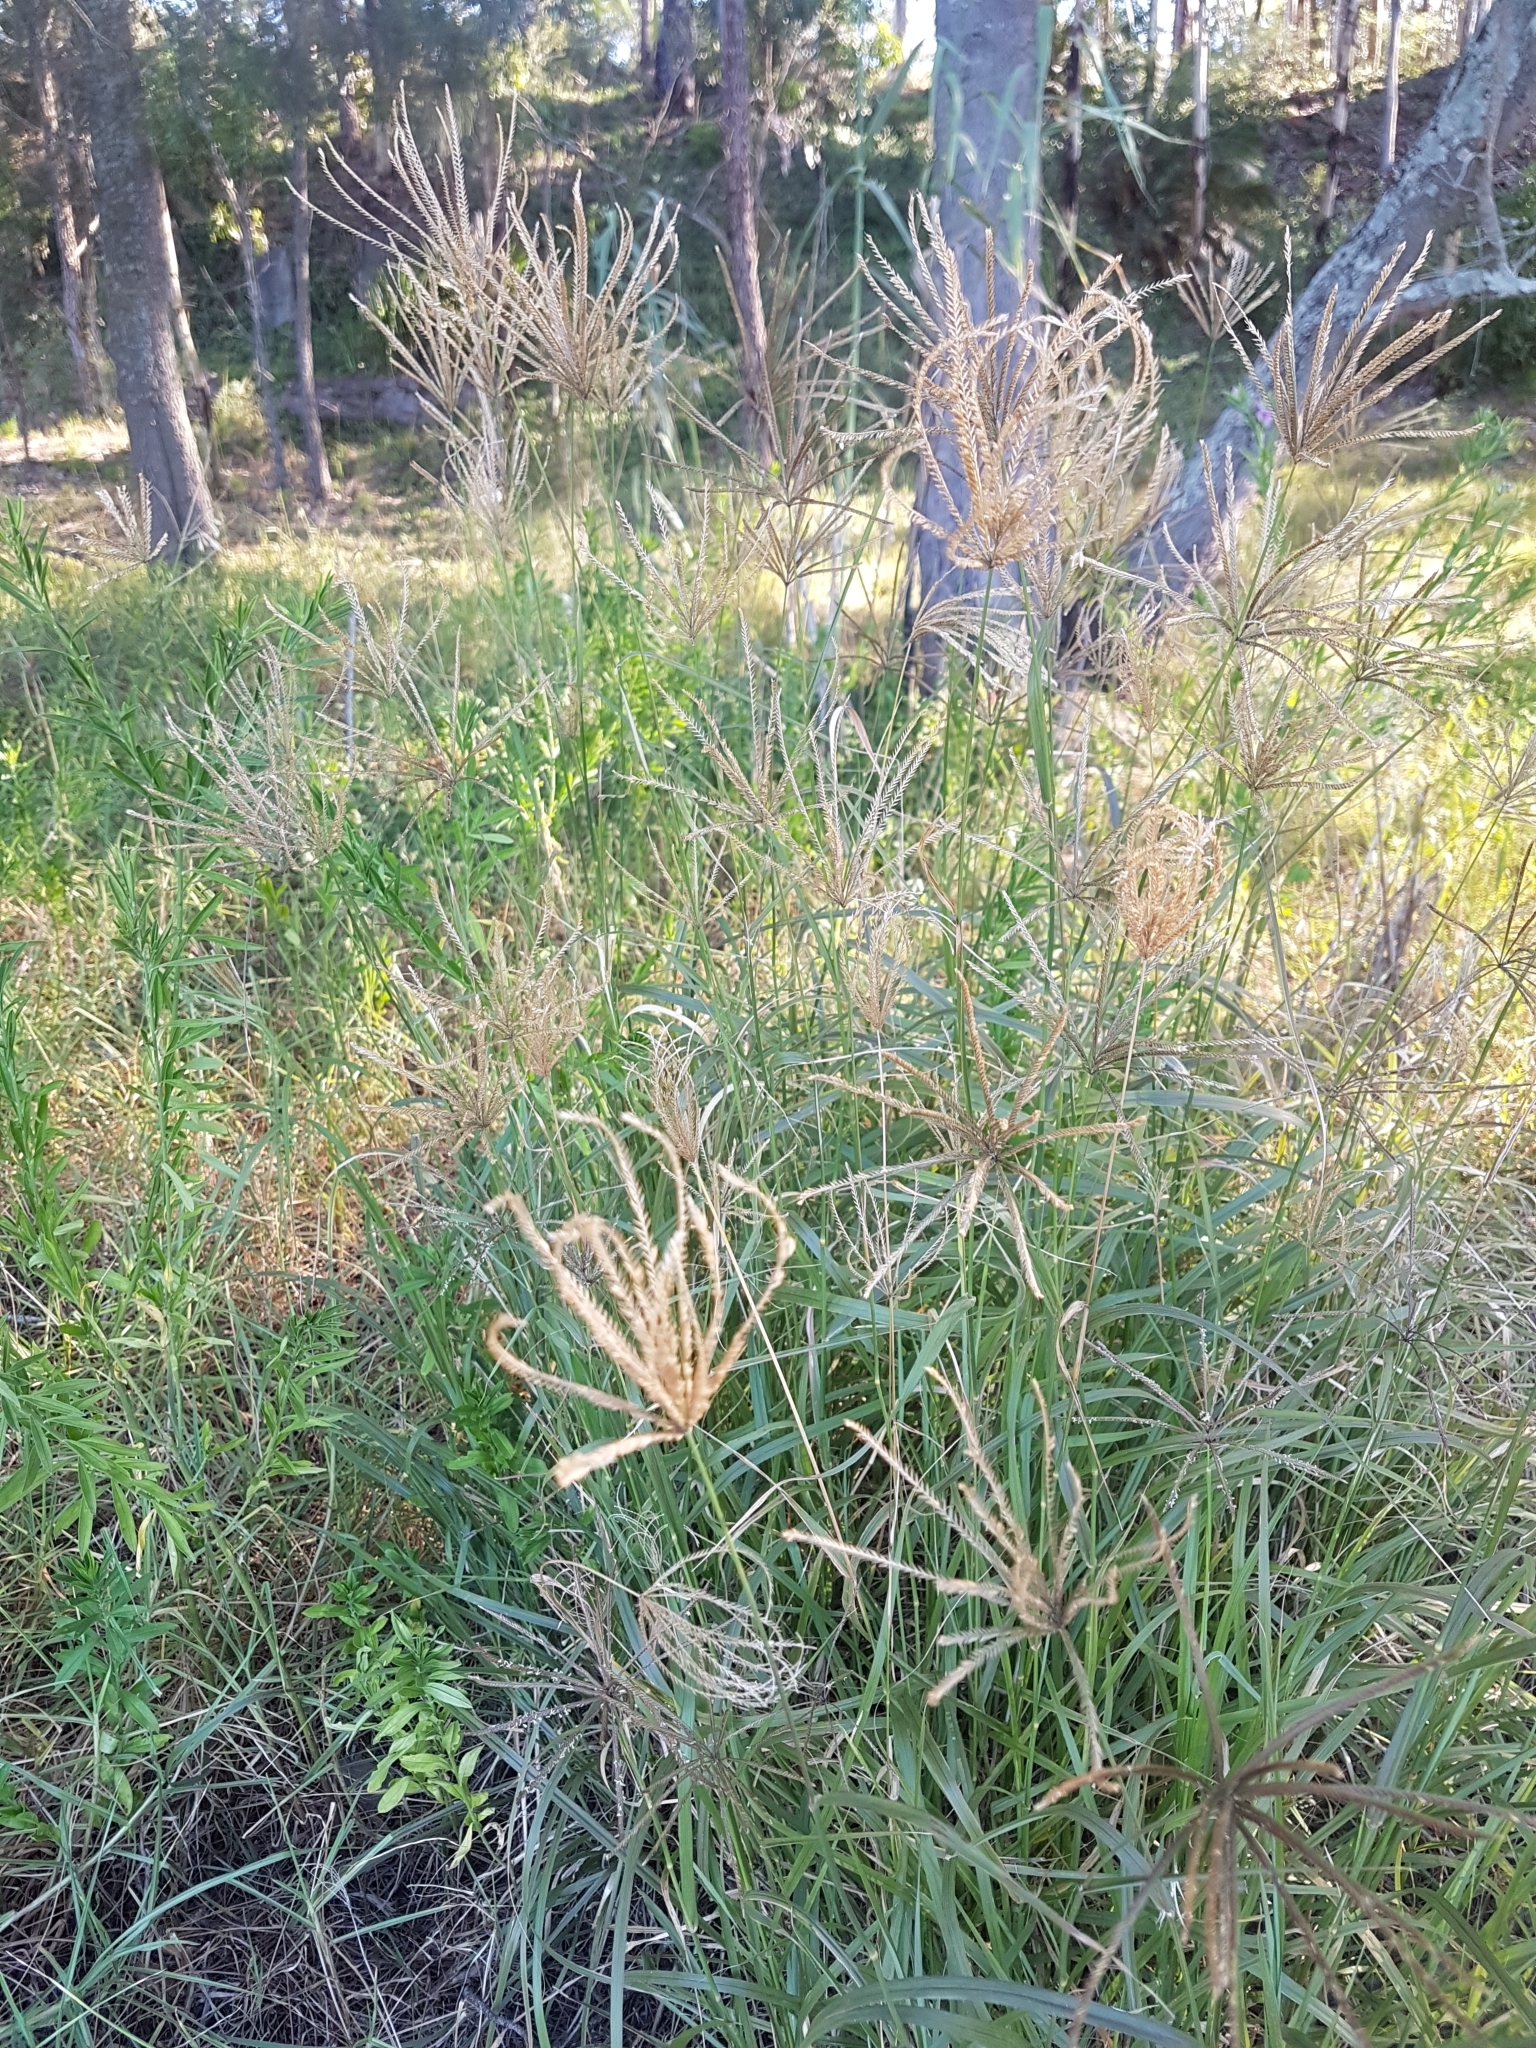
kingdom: Plantae
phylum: Tracheophyta
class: Liliopsida
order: Poales
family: Poaceae
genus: Chloris
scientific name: Chloris gayana
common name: Rhodes grass
